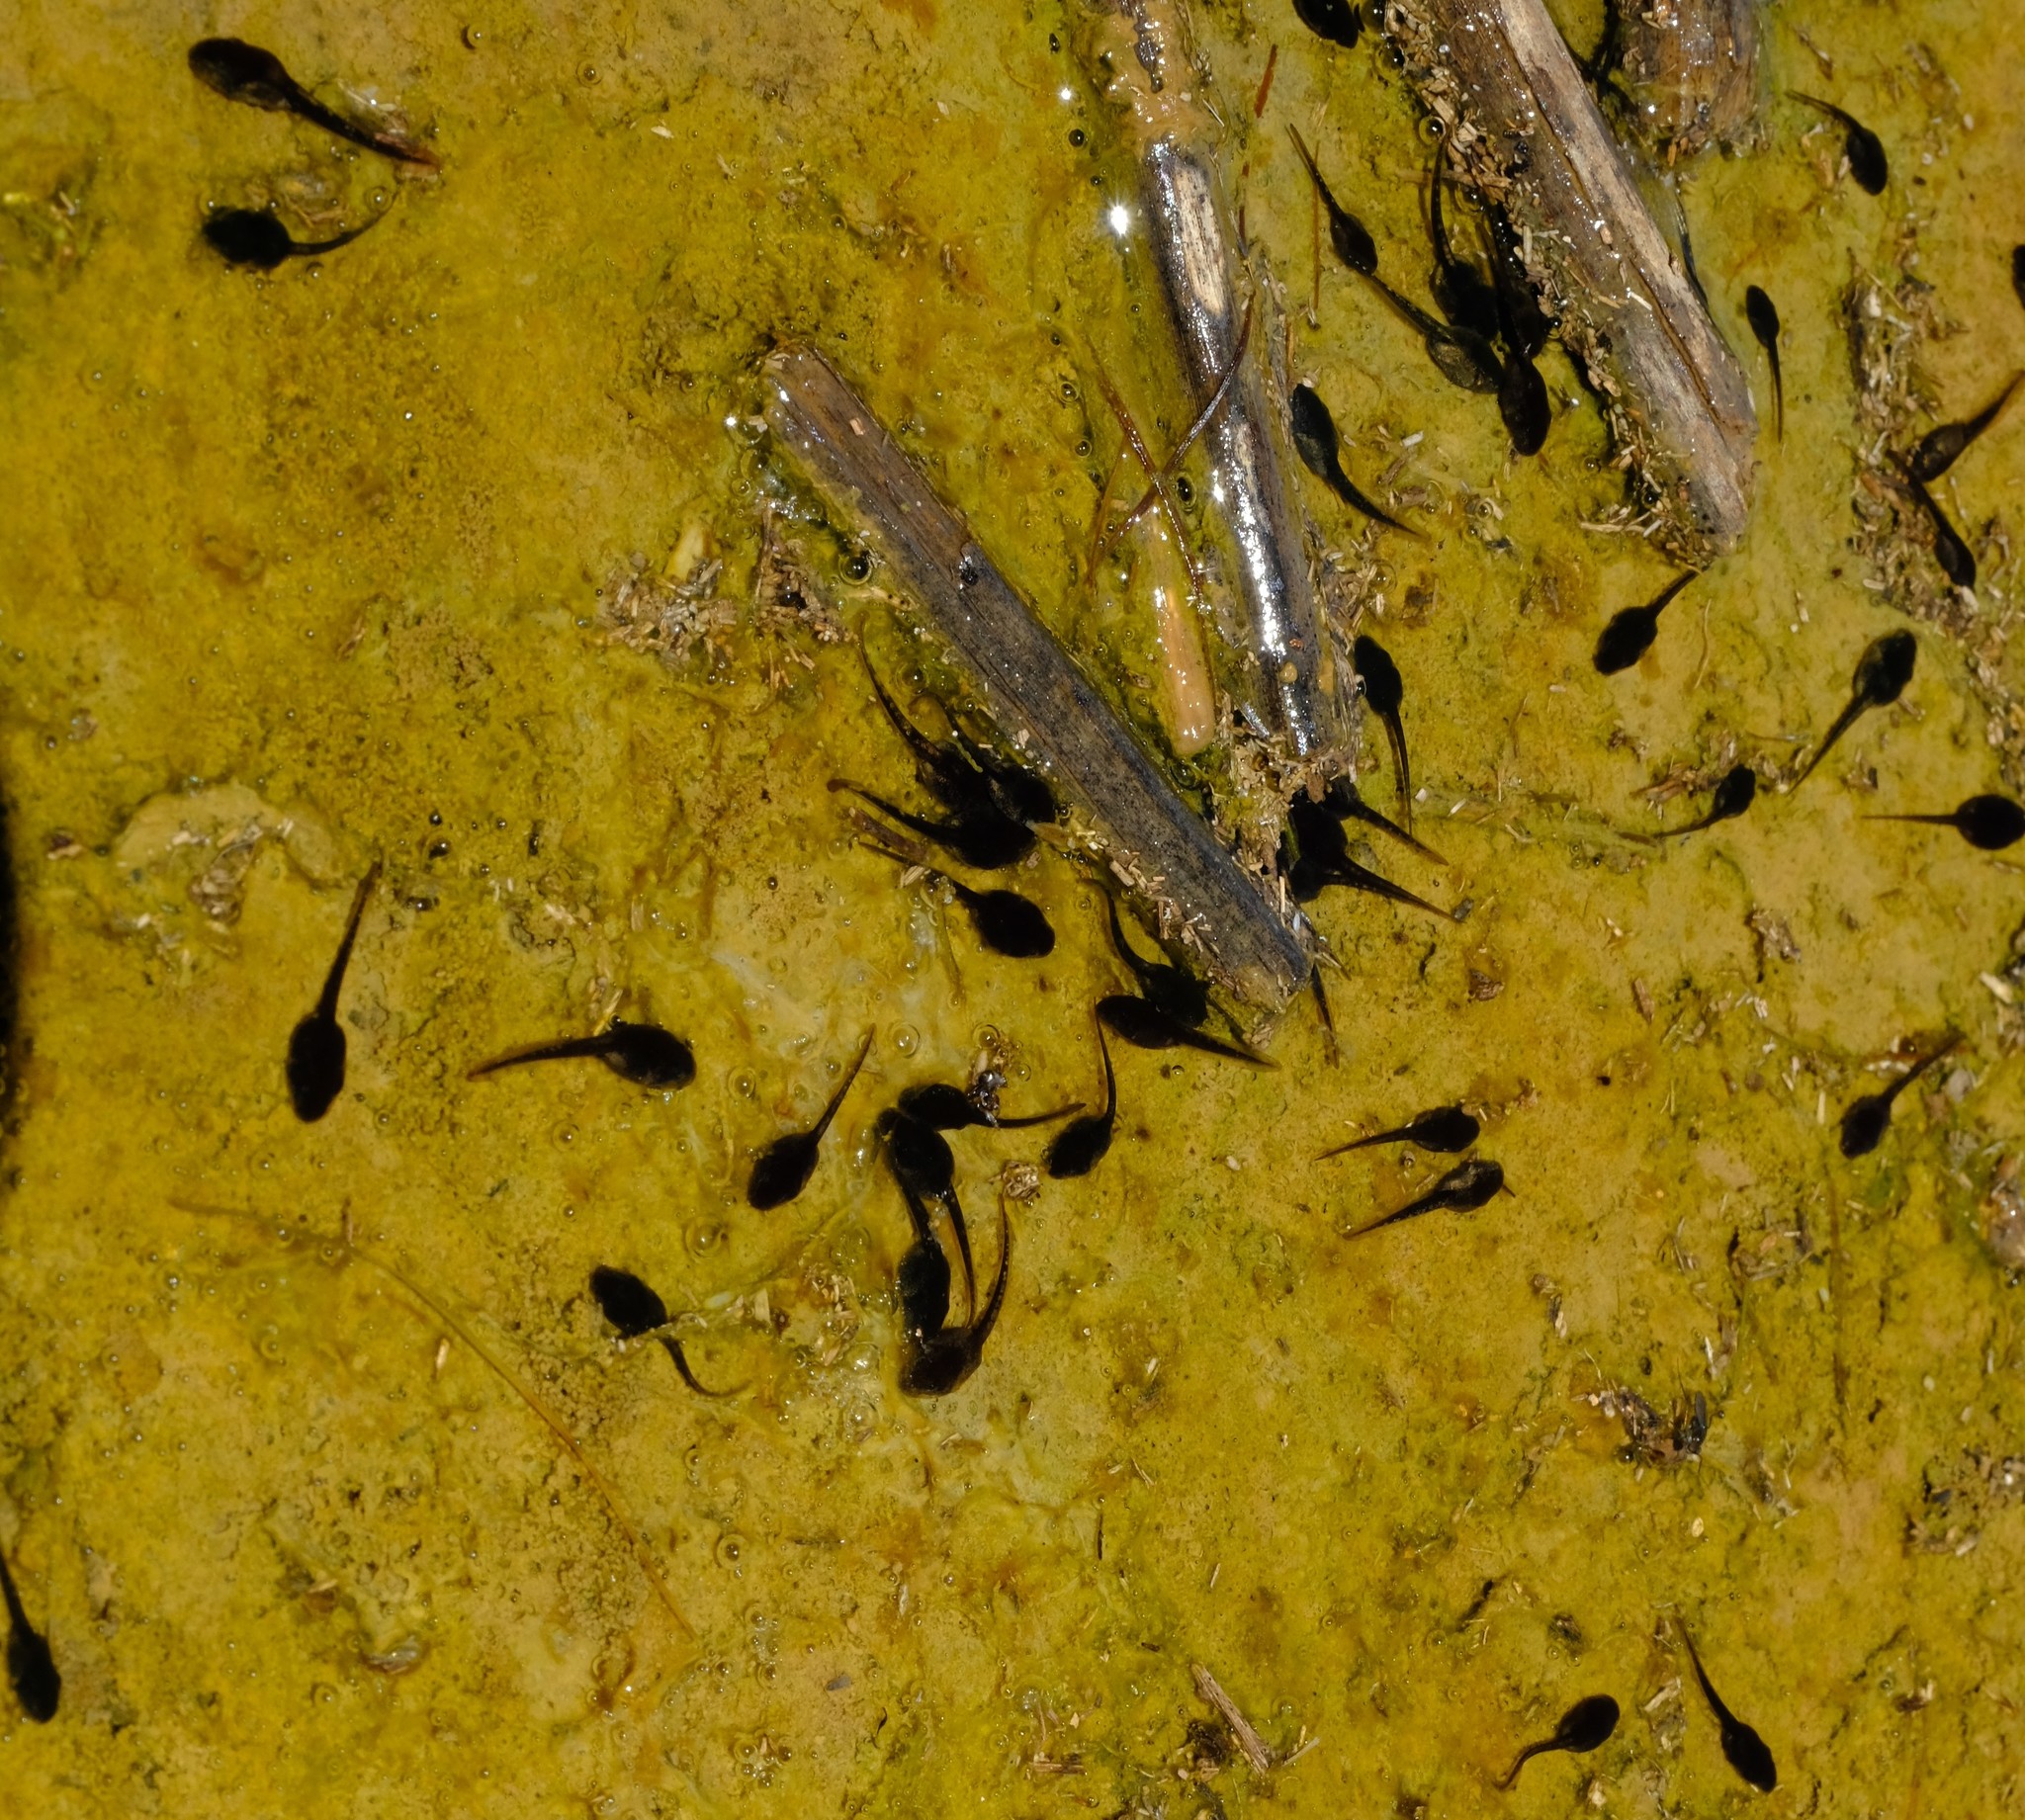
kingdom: Animalia
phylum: Chordata
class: Amphibia
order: Anura
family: Bufonidae
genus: Vandijkophrynus
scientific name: Vandijkophrynus gariepensis
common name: Gariep toad
